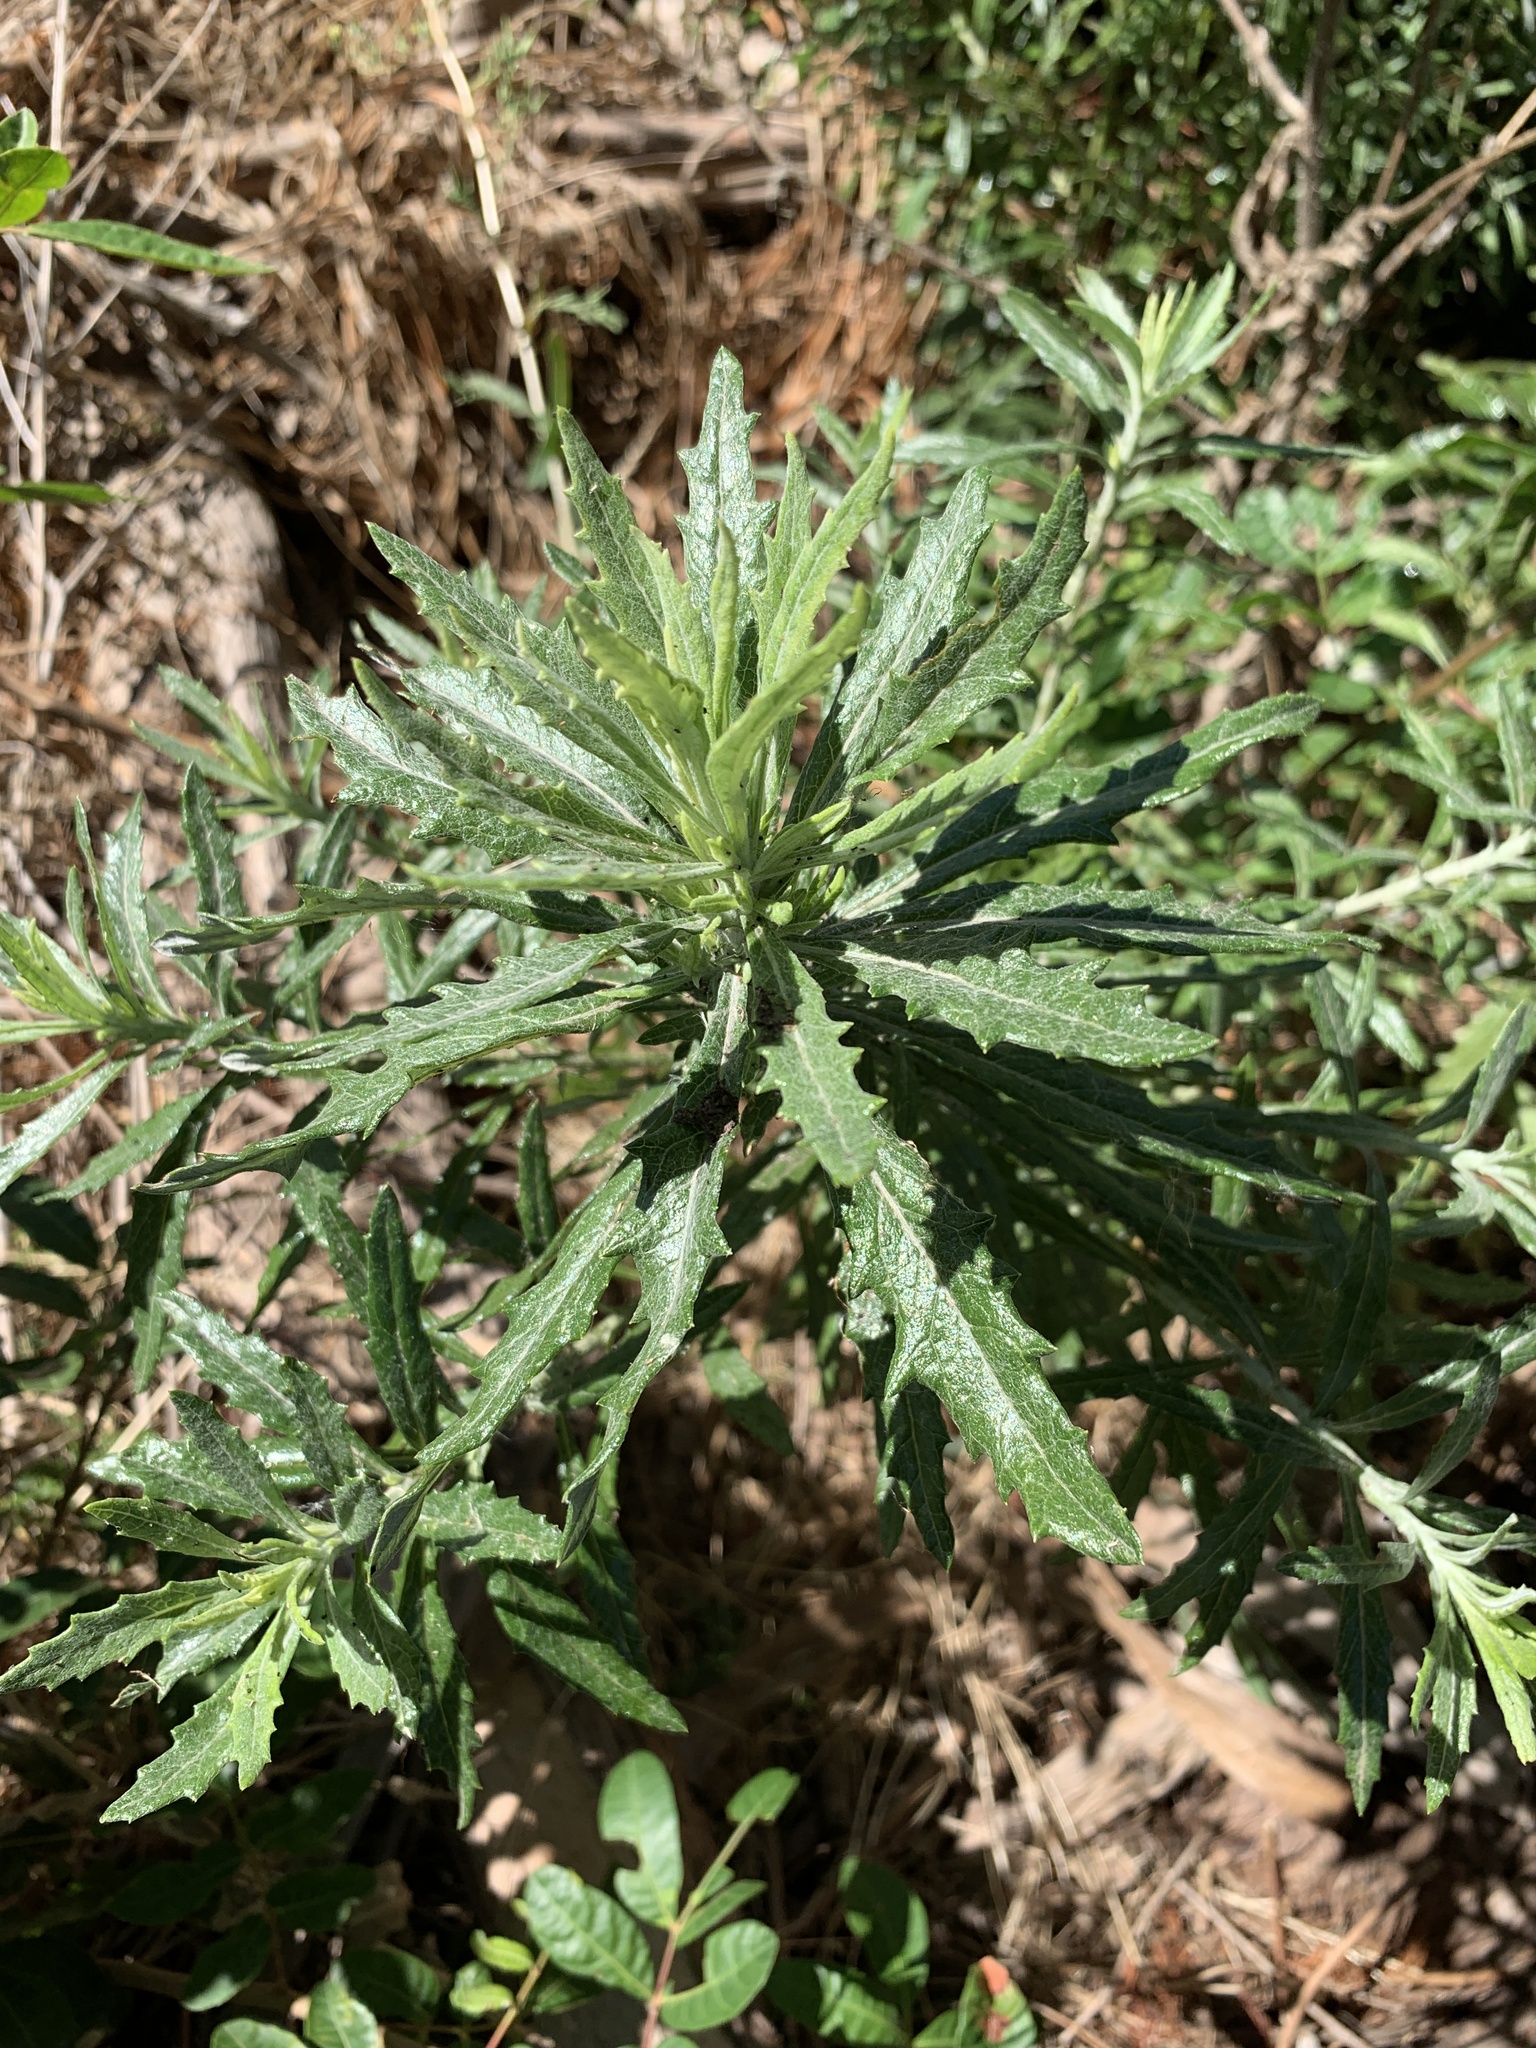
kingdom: Plantae
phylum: Tracheophyta
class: Magnoliopsida
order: Asterales
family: Asteraceae
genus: Senecio
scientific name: Senecio pterophorus
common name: Shoddy ragwort
